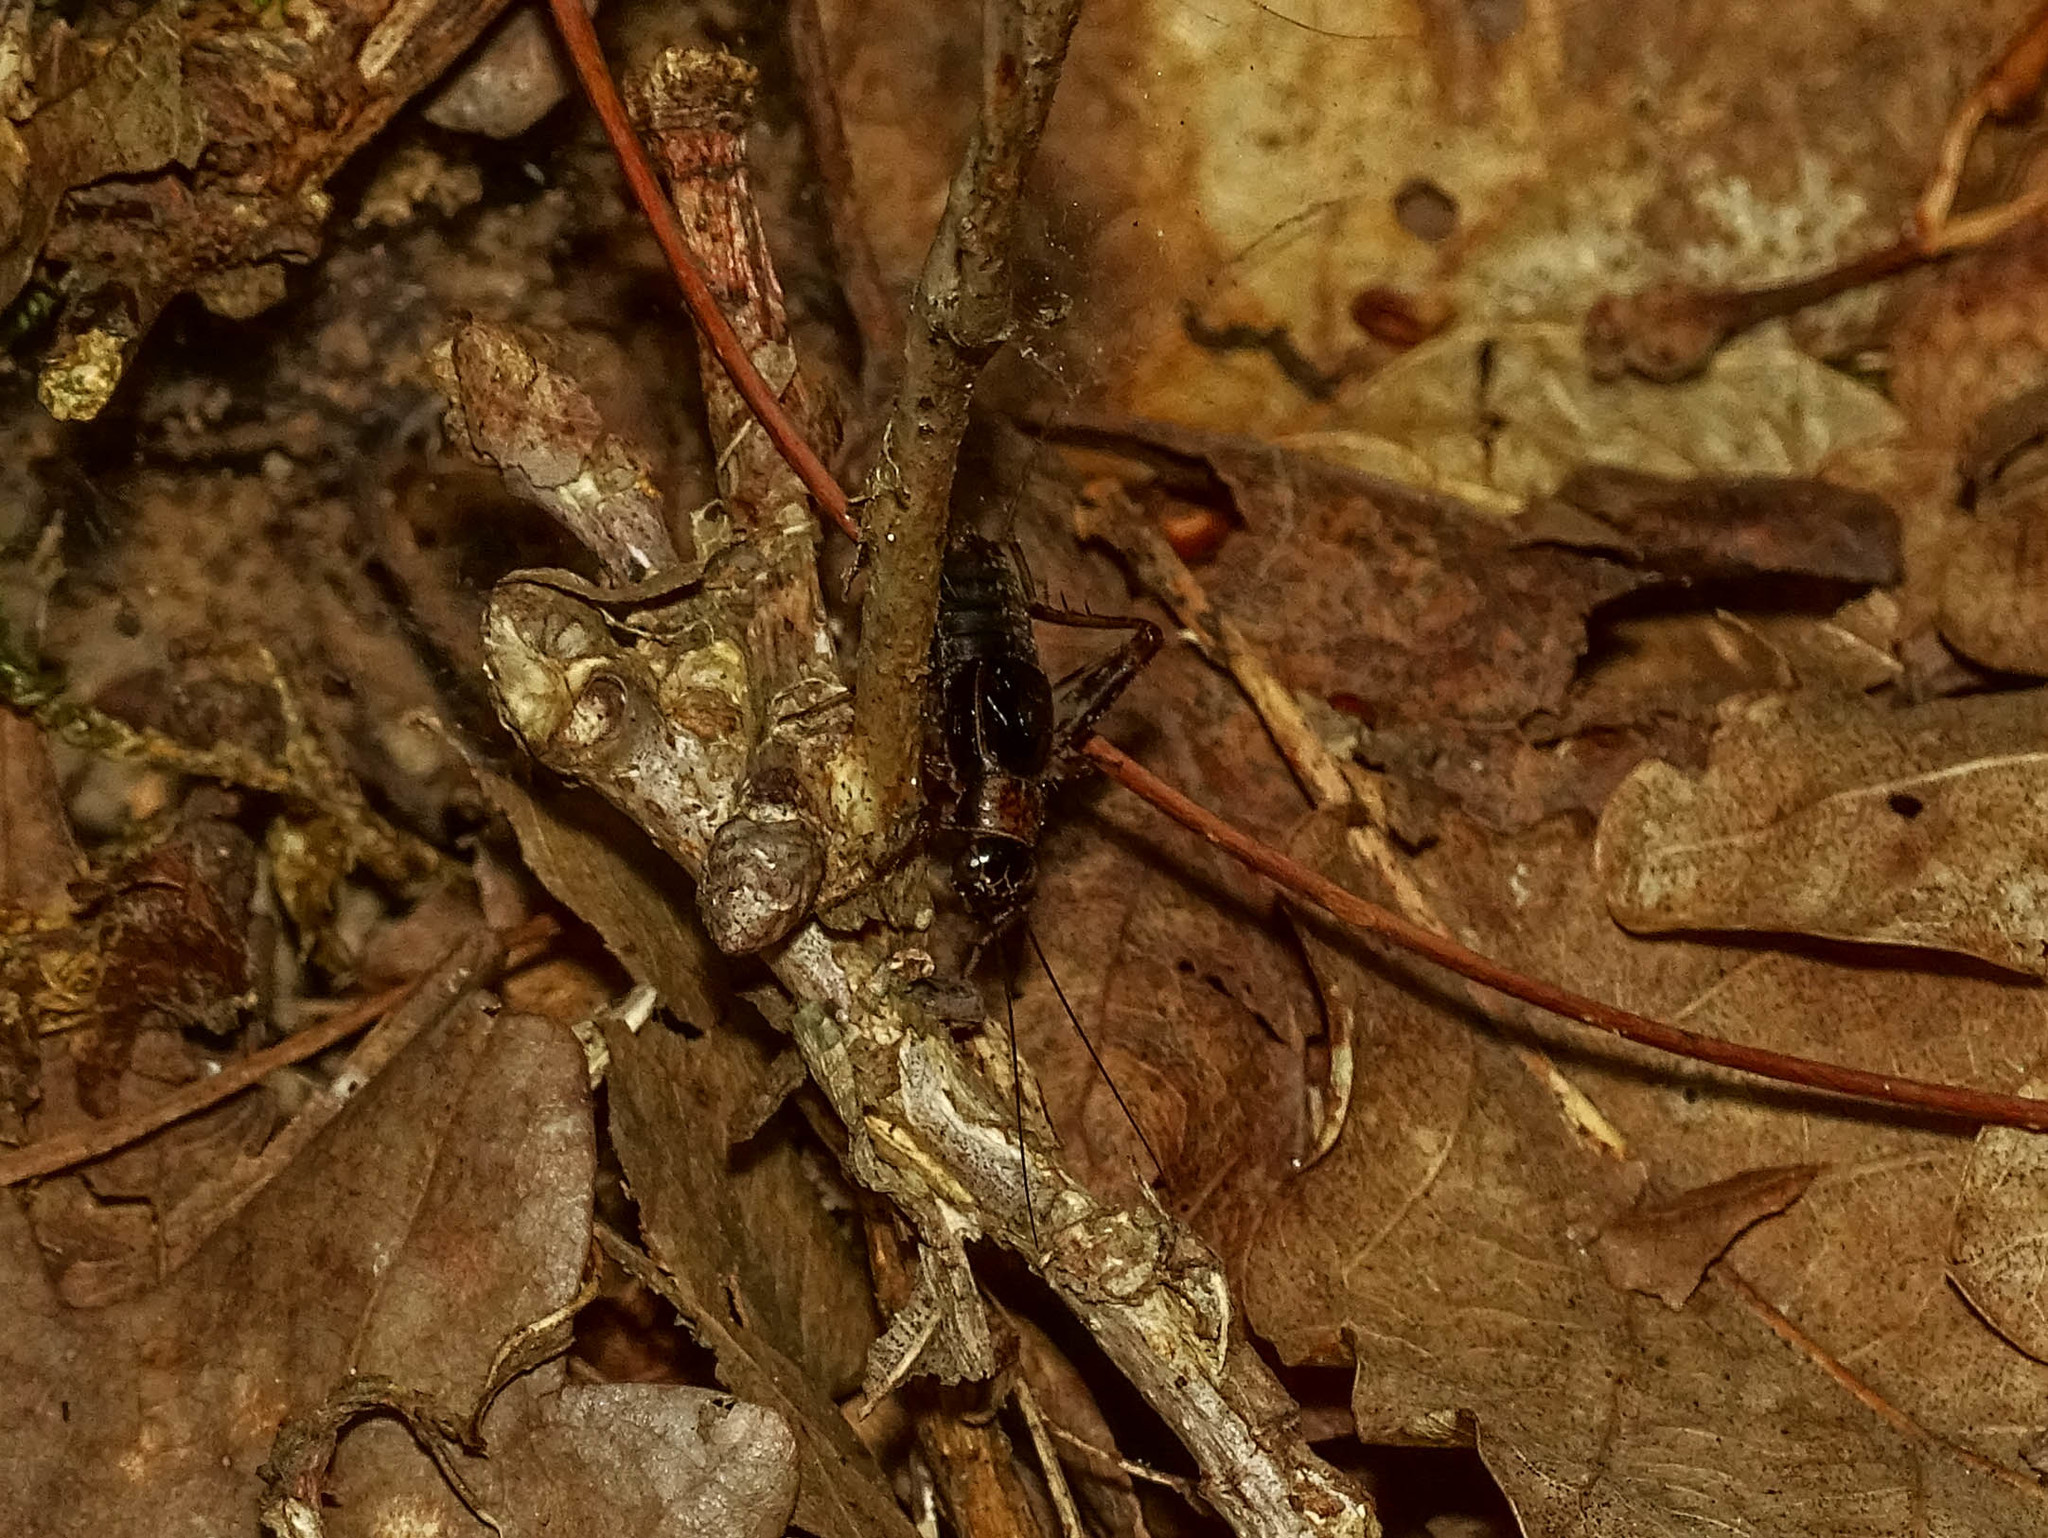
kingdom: Animalia
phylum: Arthropoda
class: Insecta
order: Orthoptera
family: Trigonidiidae
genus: Nemobius
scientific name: Nemobius sylvestris
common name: Wood-cricket
